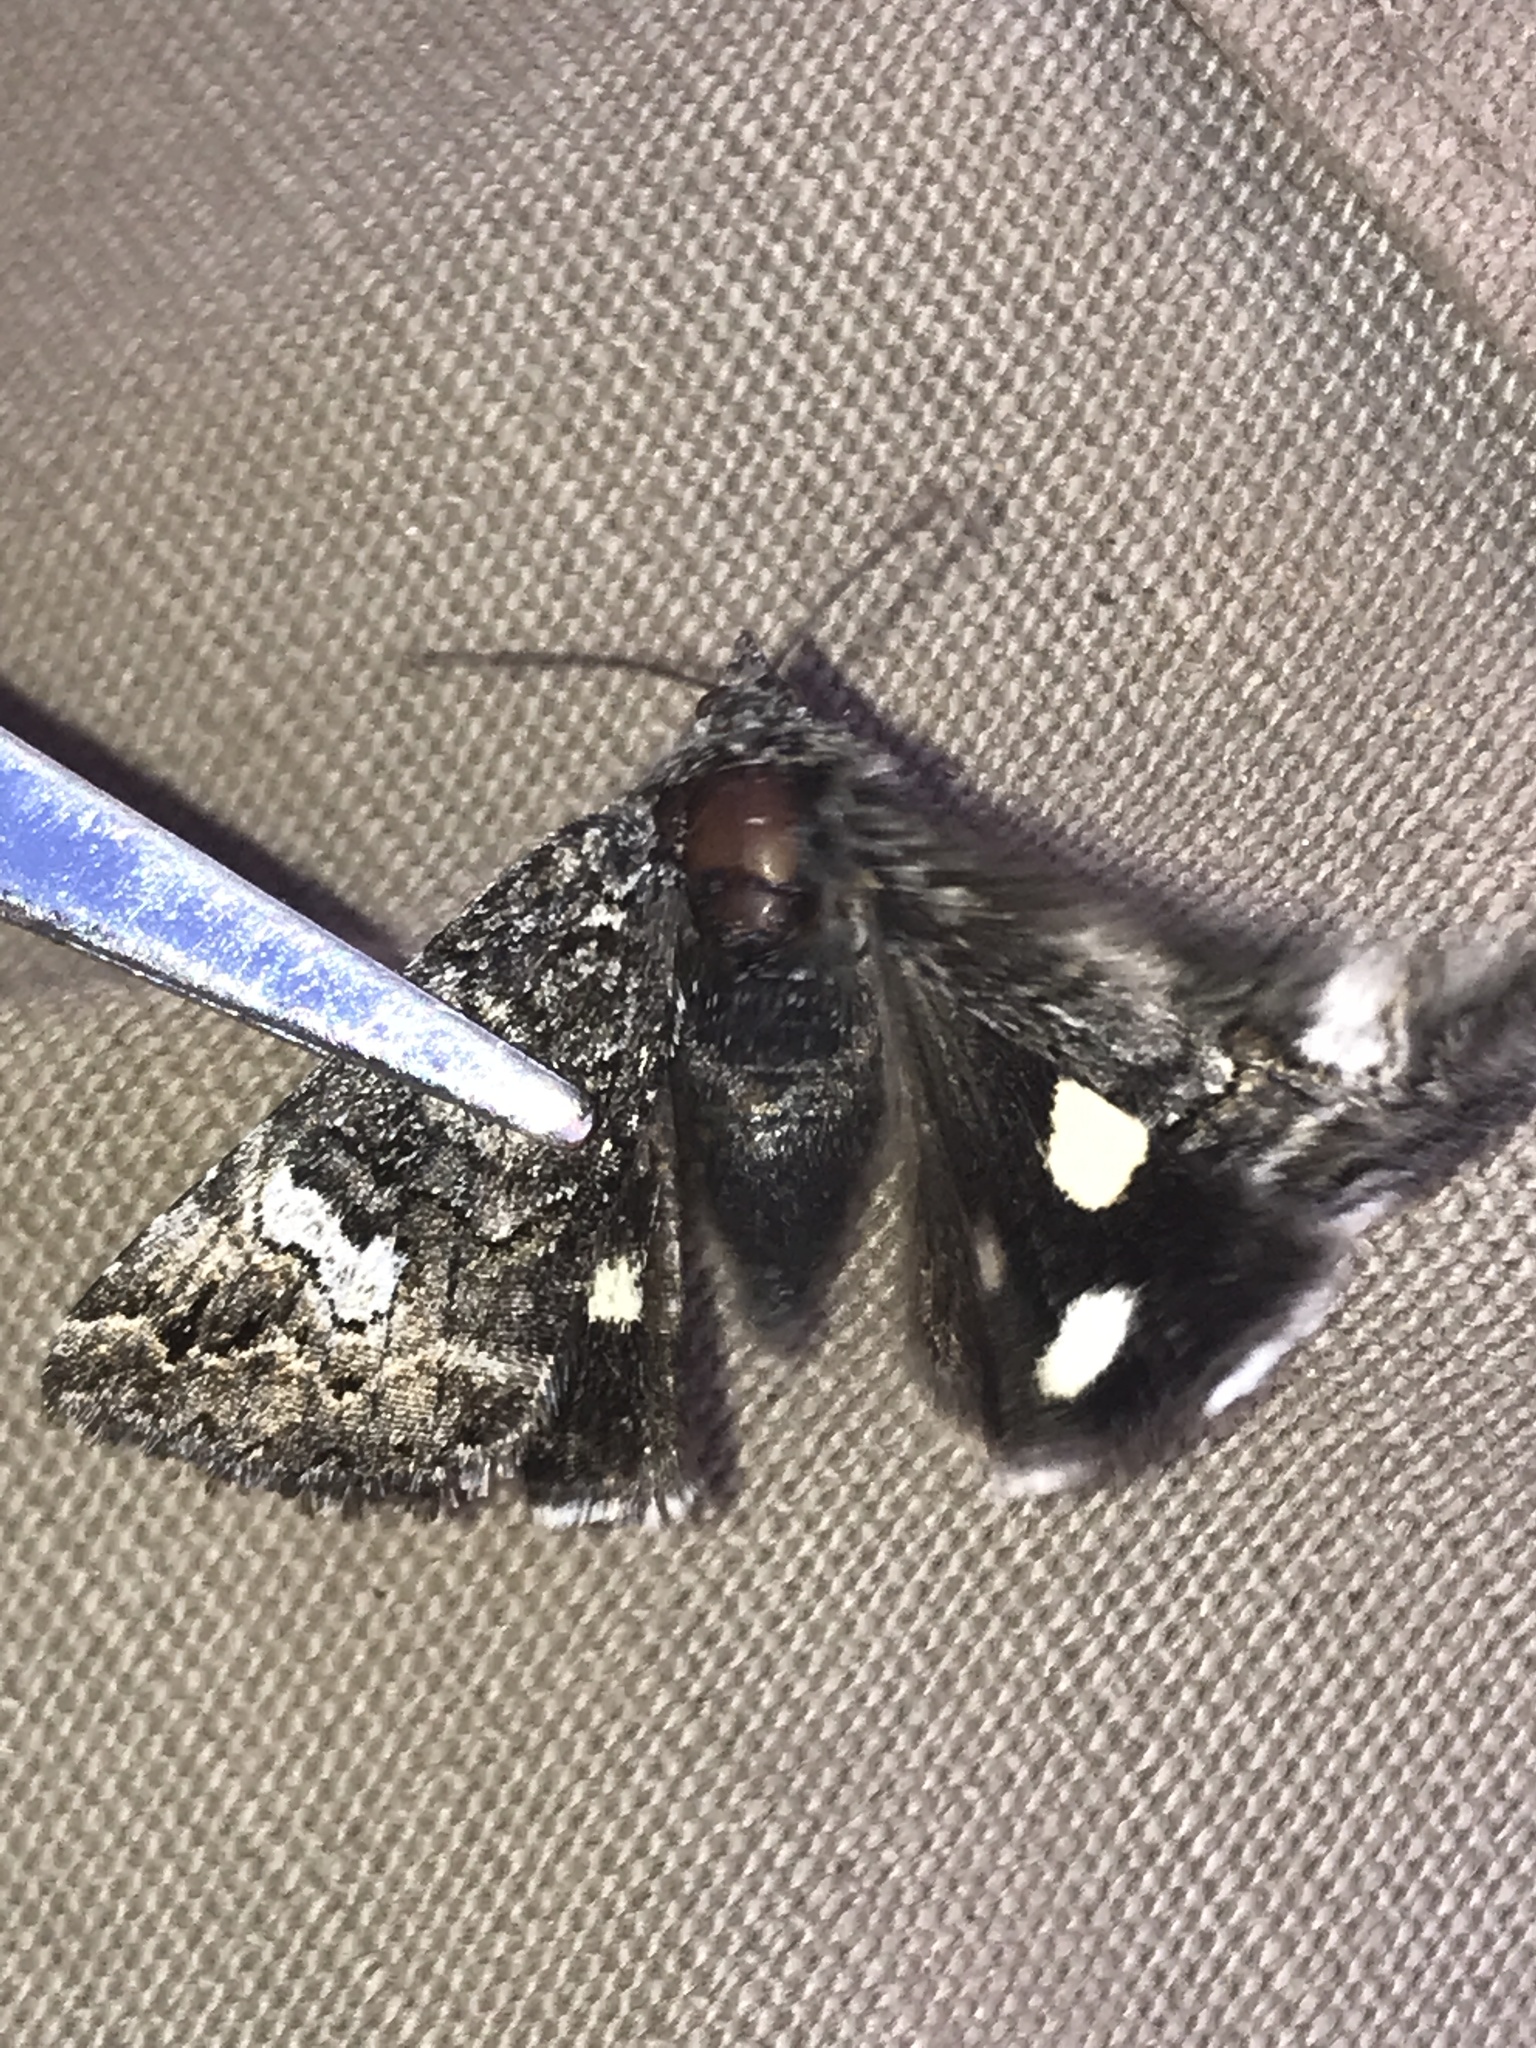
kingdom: Animalia
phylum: Arthropoda
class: Insecta
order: Lepidoptera
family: Erebidae
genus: Litocala
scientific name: Litocala sexsignata
